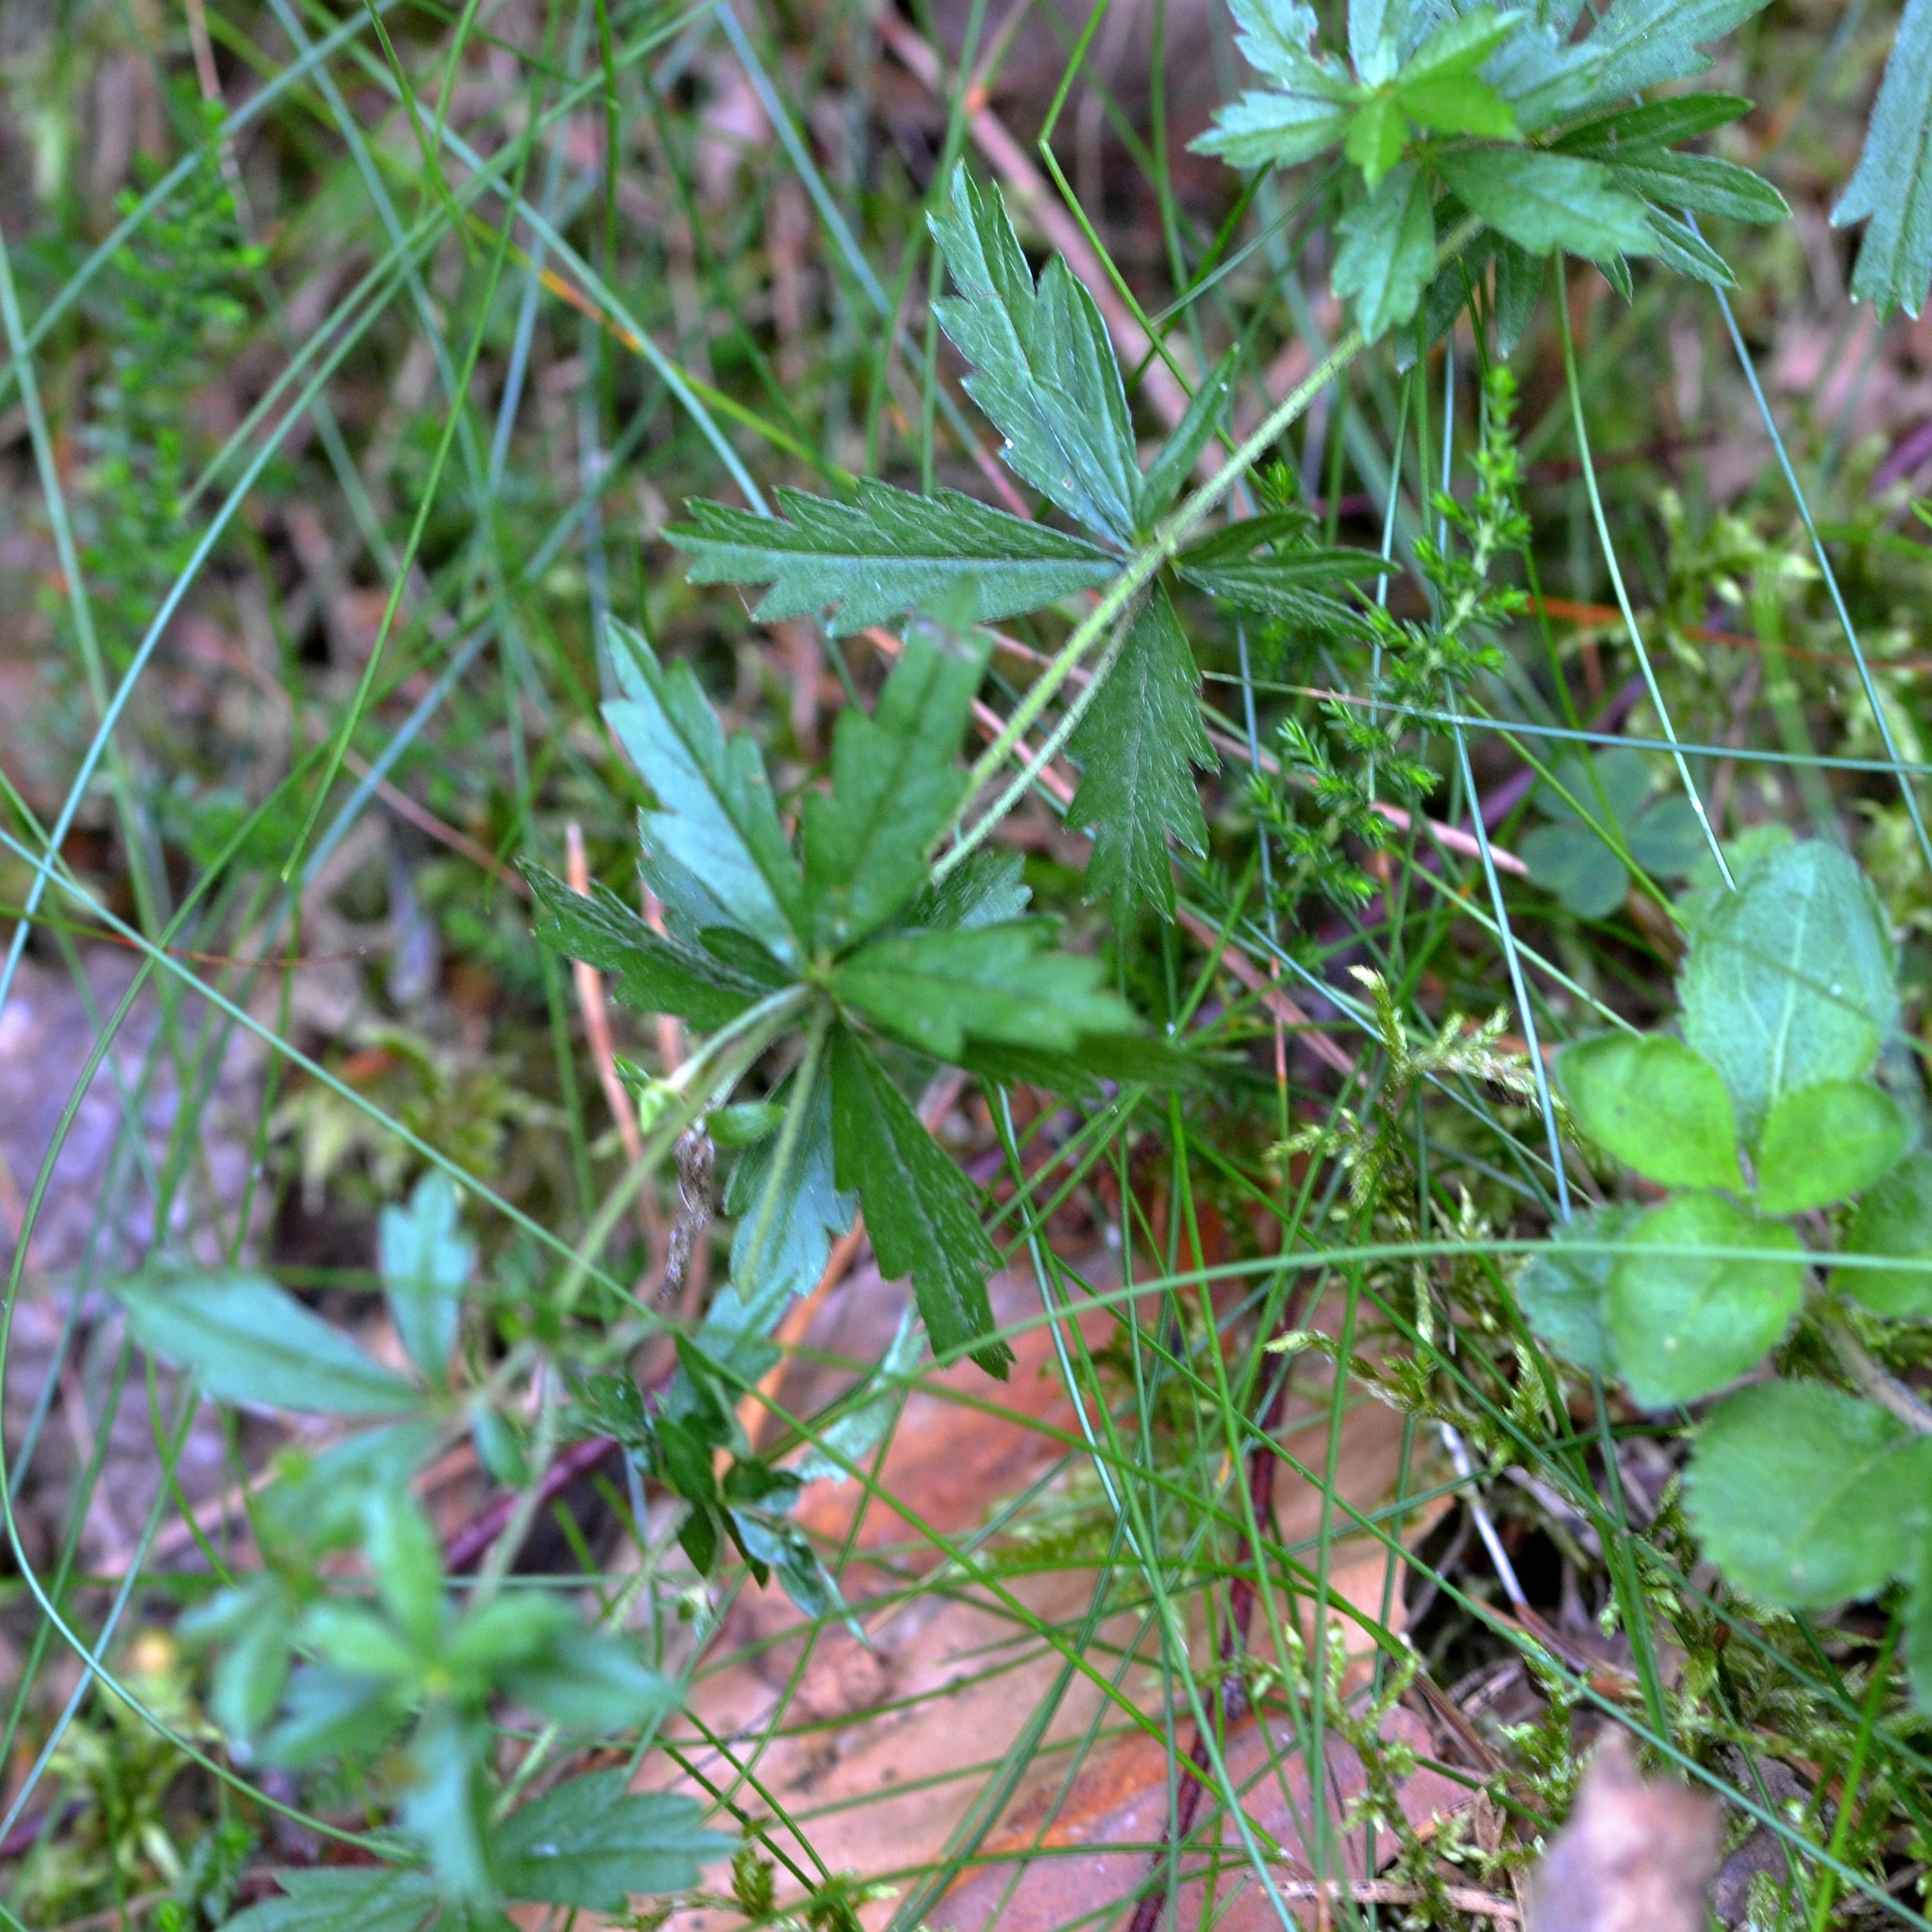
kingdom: Plantae
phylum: Tracheophyta
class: Magnoliopsida
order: Rosales
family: Rosaceae
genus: Potentilla
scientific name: Potentilla erecta
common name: Tormentil
